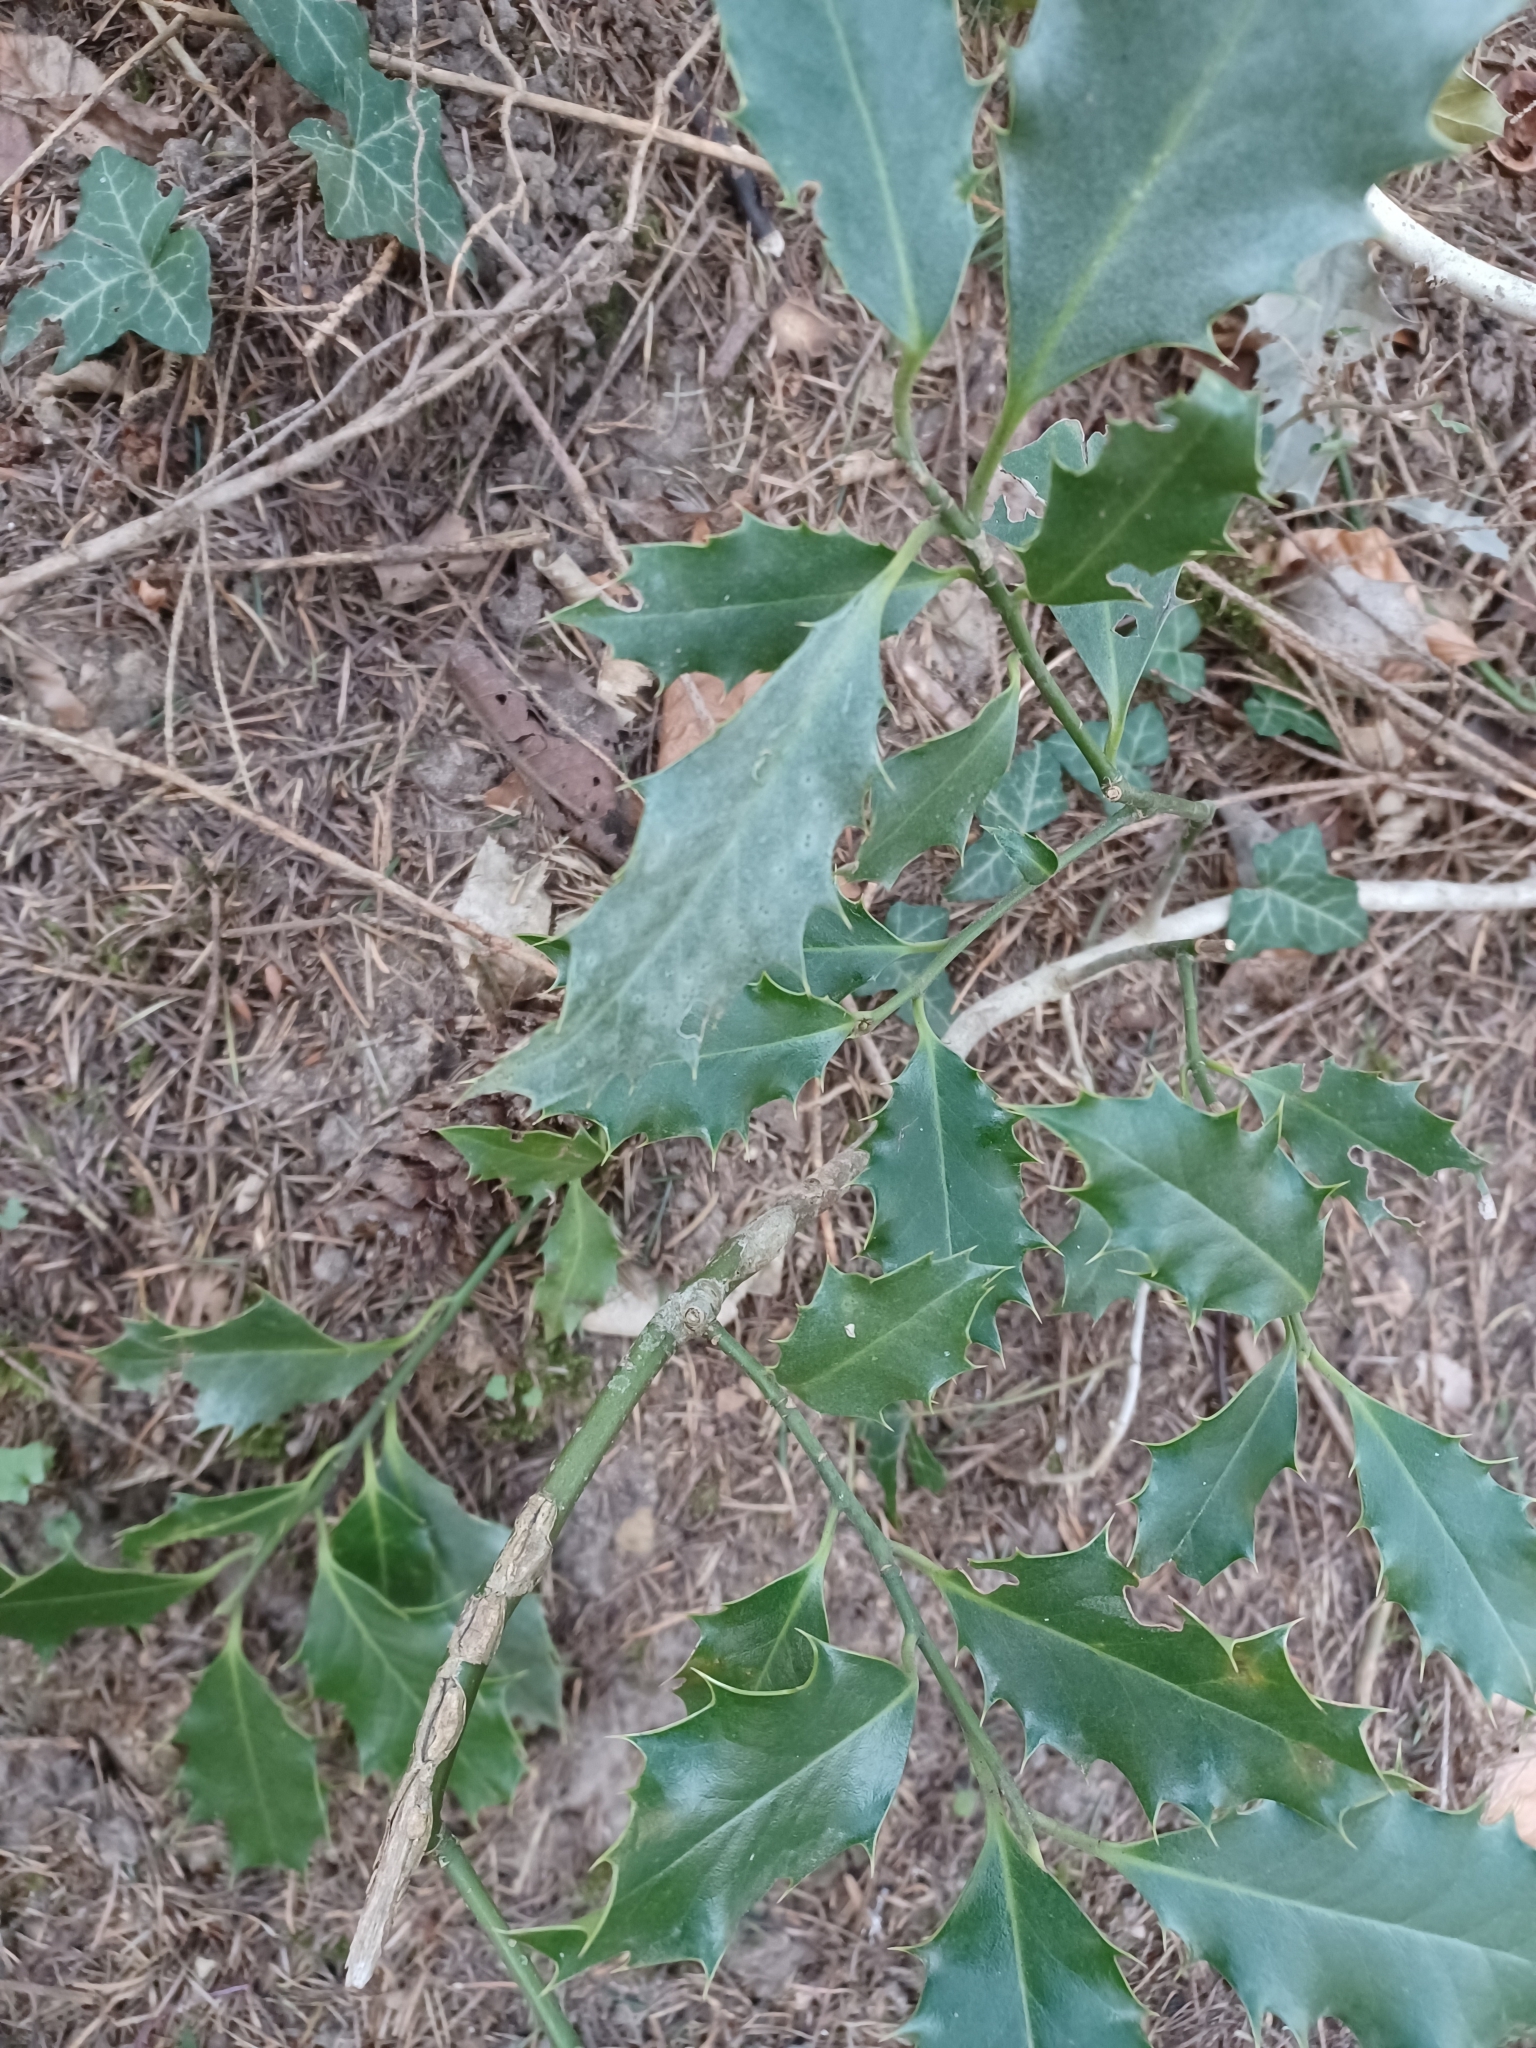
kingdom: Plantae
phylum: Tracheophyta
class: Magnoliopsida
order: Aquifoliales
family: Aquifoliaceae
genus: Ilex
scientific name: Ilex aquifolium
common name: English holly
